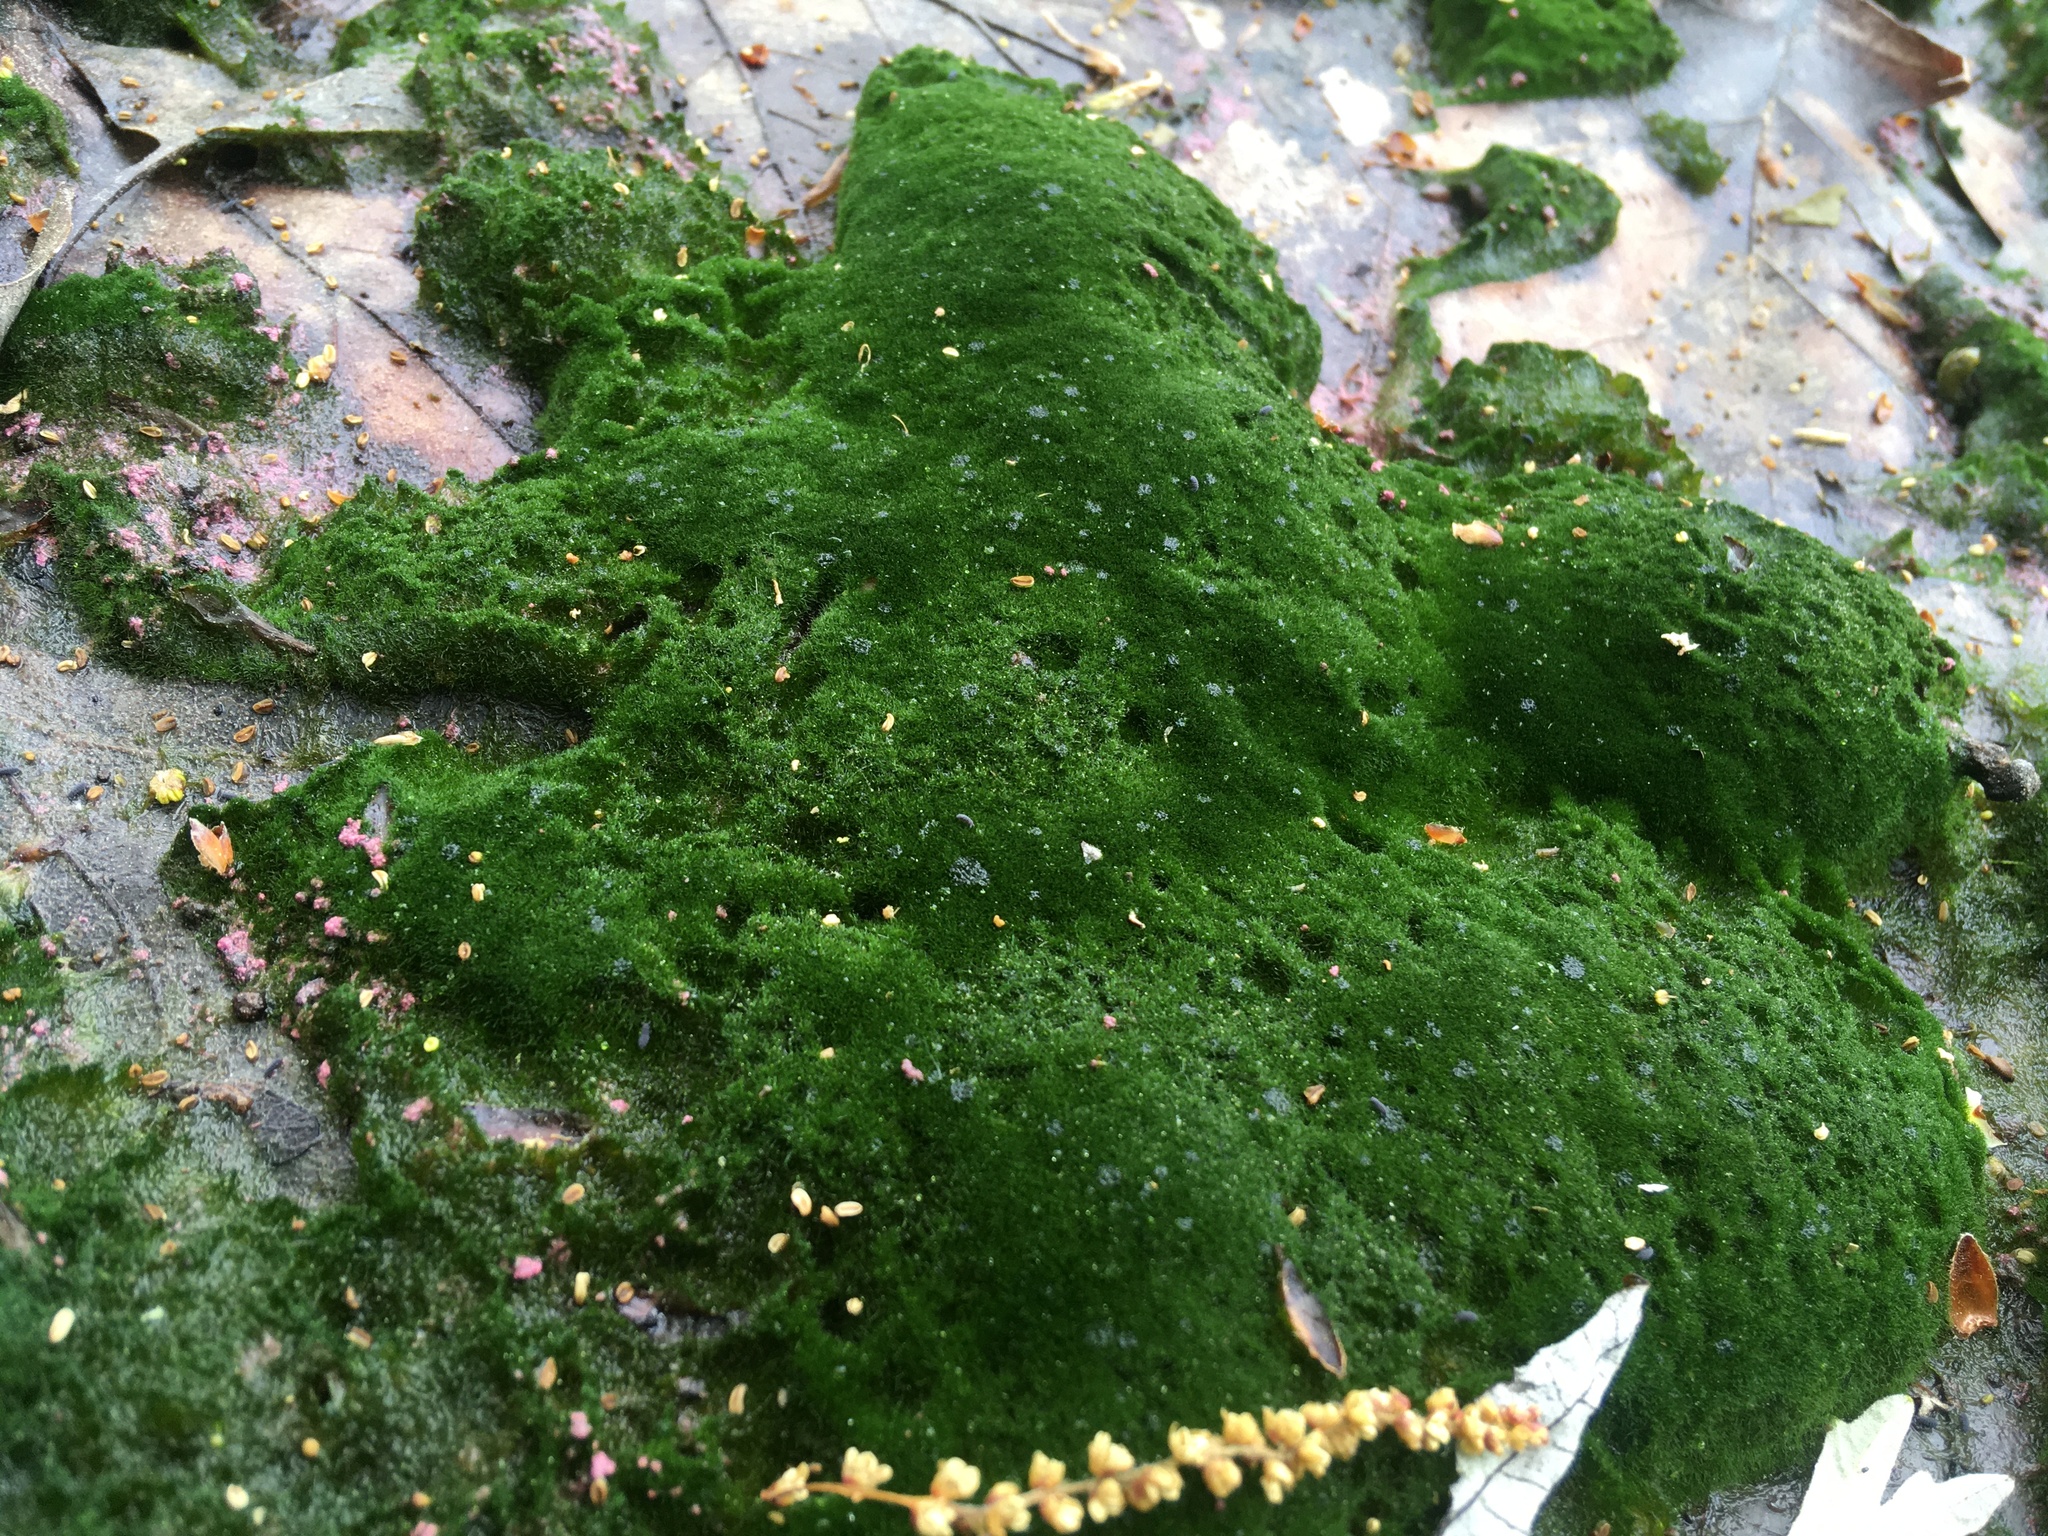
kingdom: Plantae
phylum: Chlorophyta
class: Ulvophyceae
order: Ulotrichales
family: Ulotrichaceae
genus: Acrosiphonia
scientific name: Acrosiphonia
